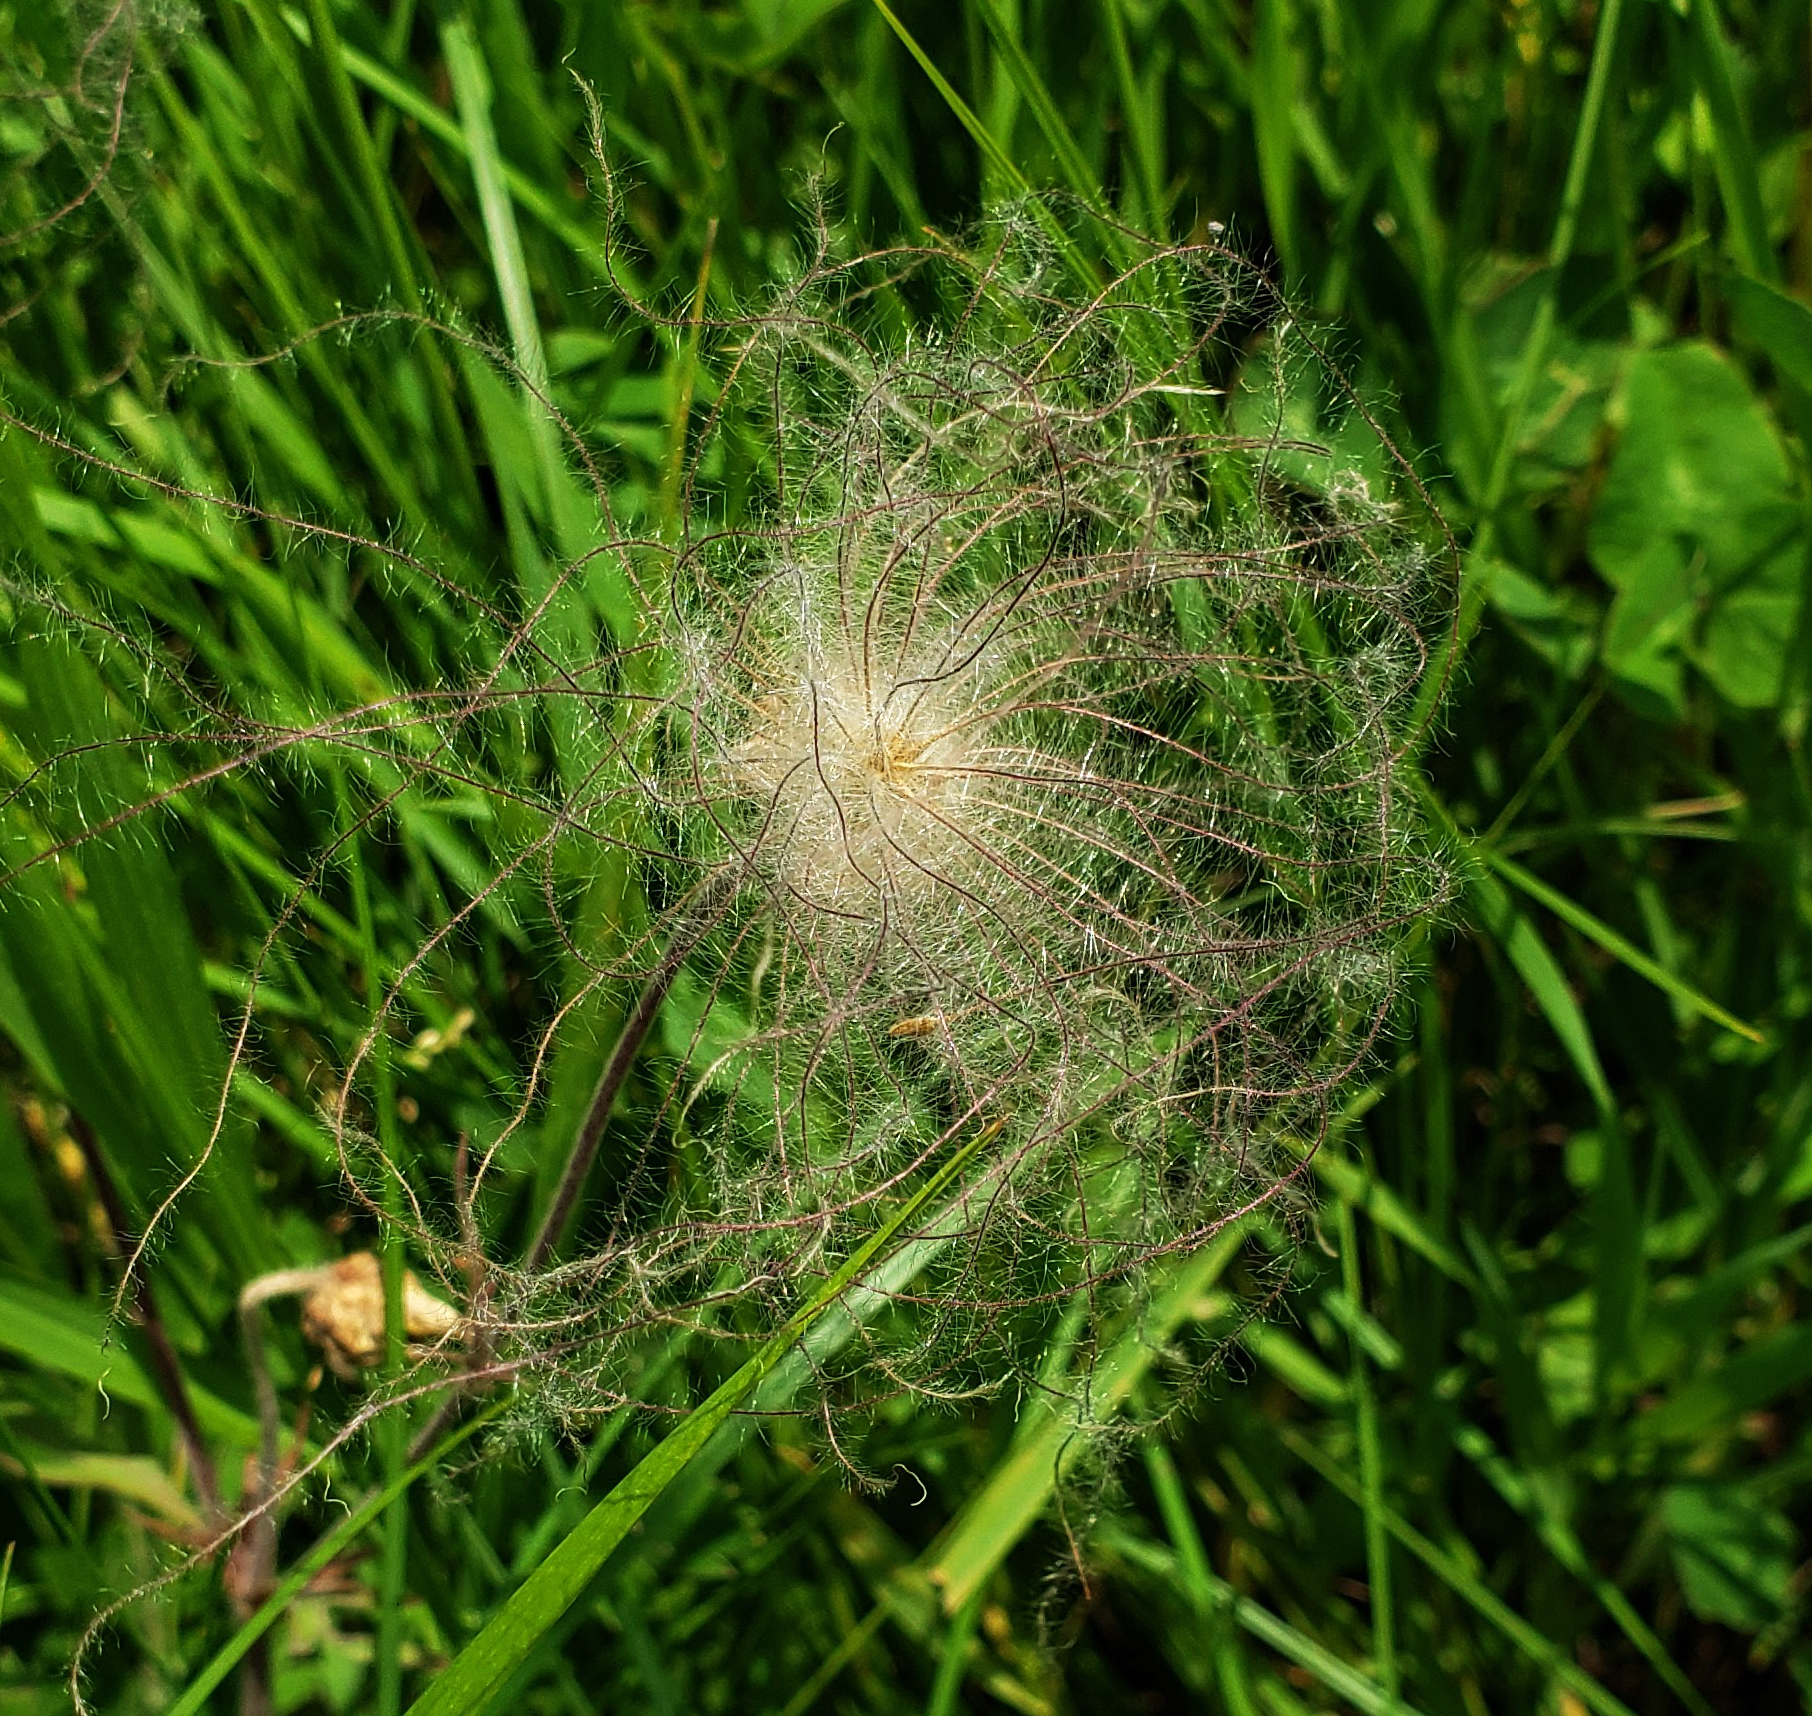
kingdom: Plantae
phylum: Tracheophyta
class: Magnoliopsida
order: Rosales
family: Rosaceae
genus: Geum
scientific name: Geum triflorum
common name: Old man's whiskers
